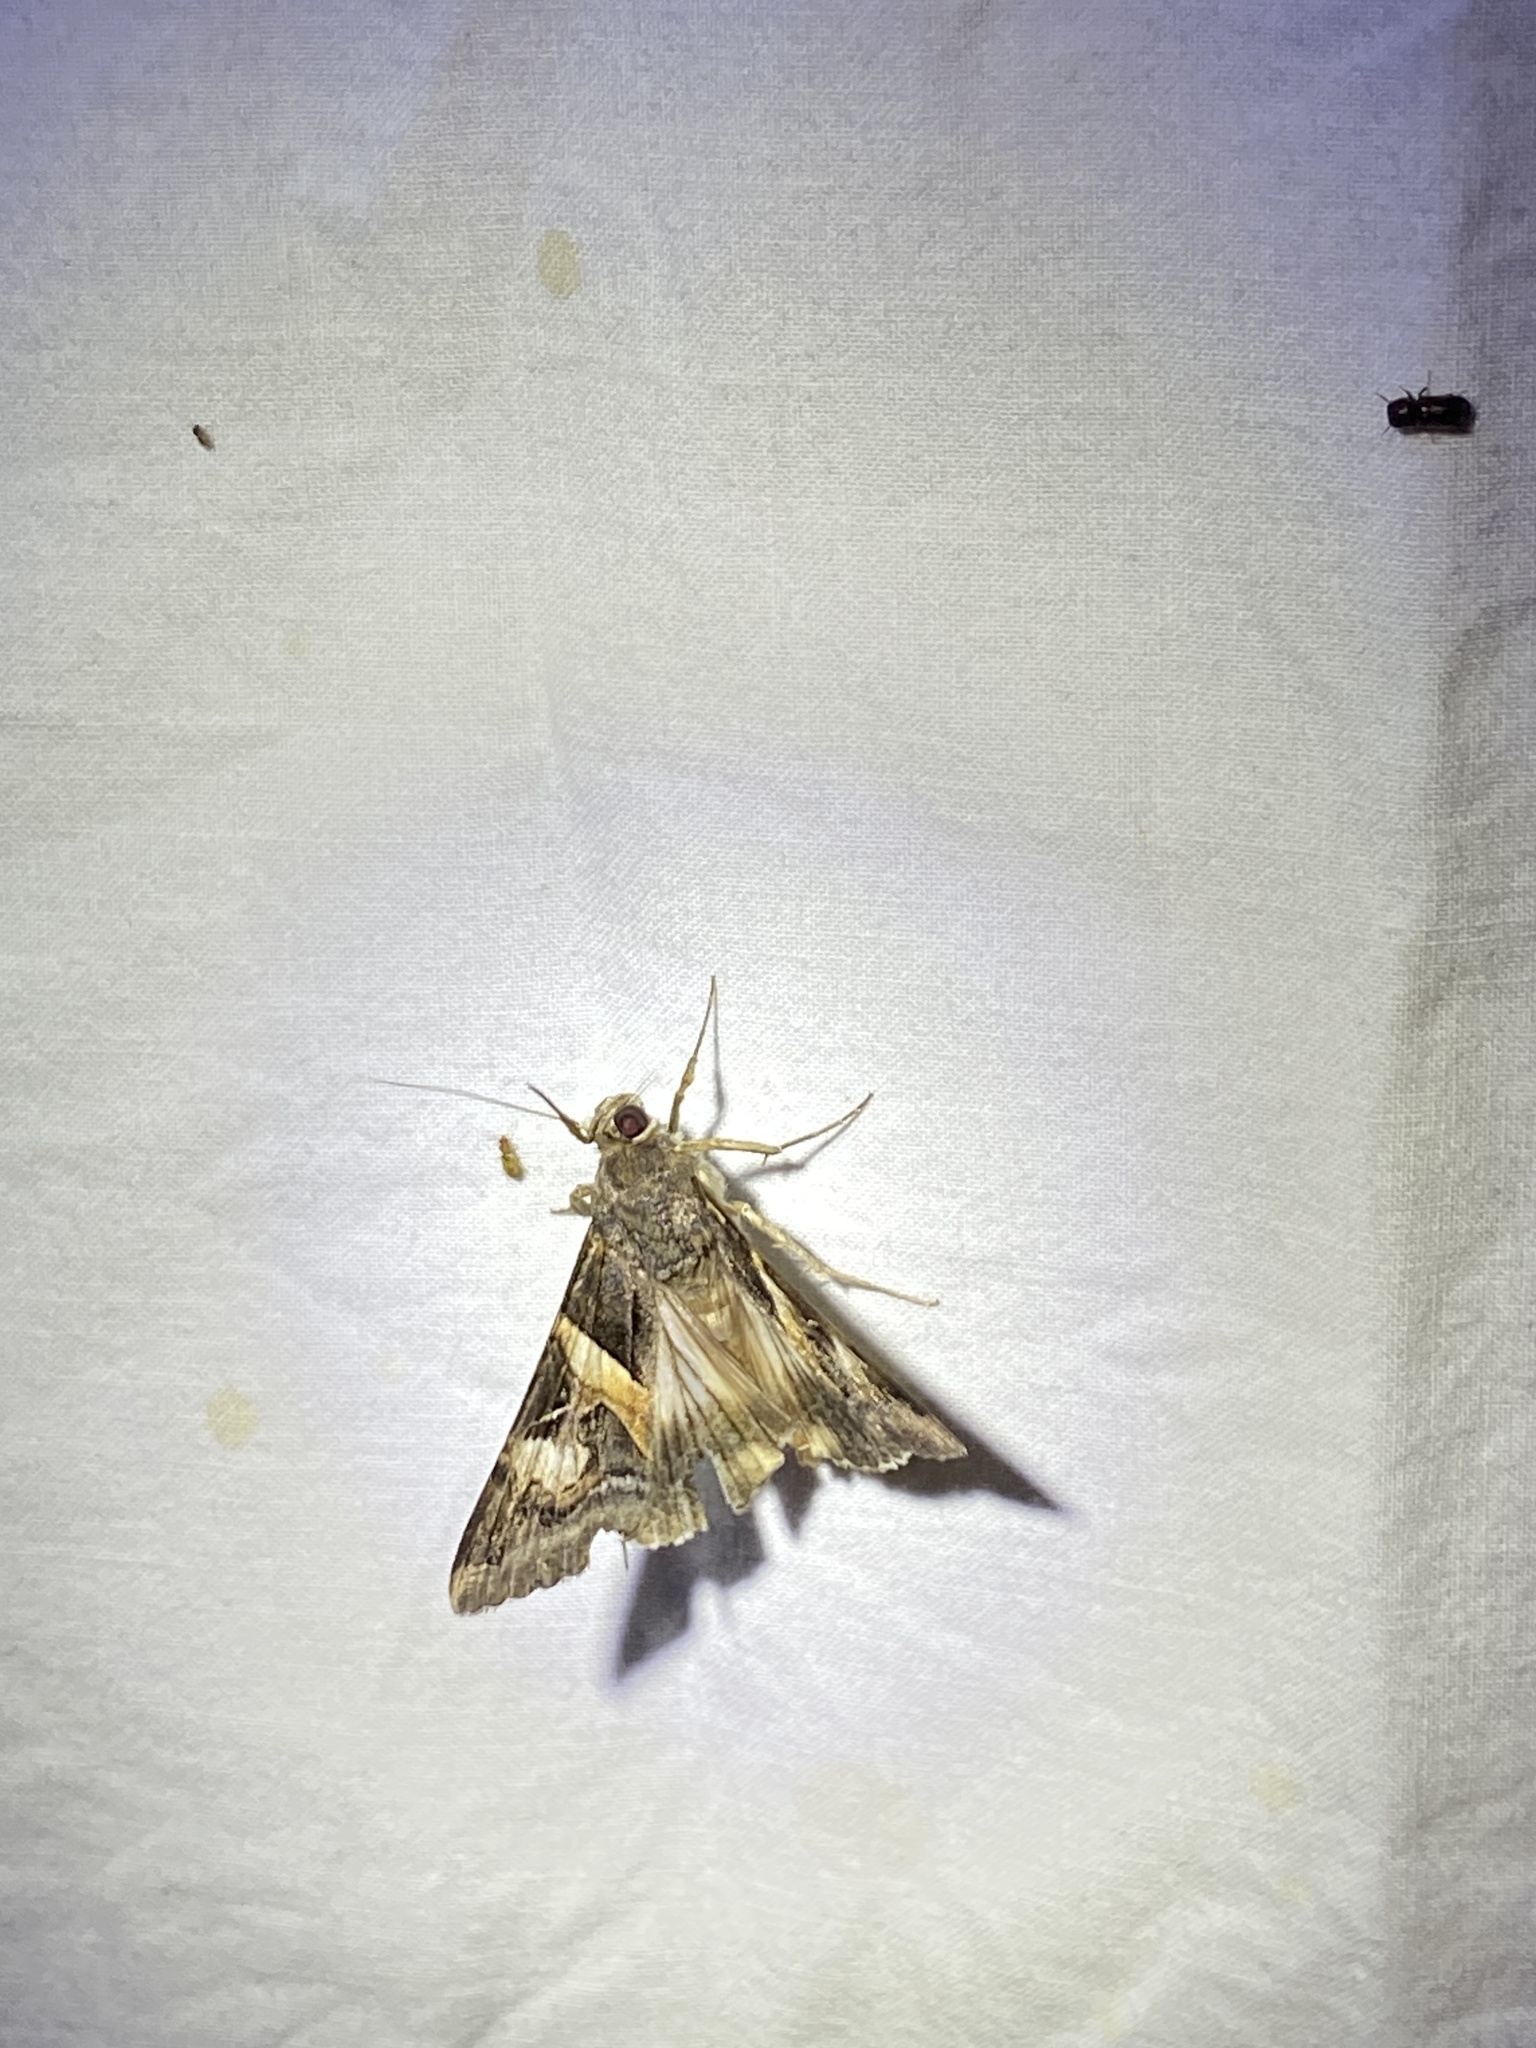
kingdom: Animalia
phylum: Arthropoda
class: Insecta
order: Lepidoptera
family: Erebidae
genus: Melipotis
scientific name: Melipotis indomita
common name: Moth
